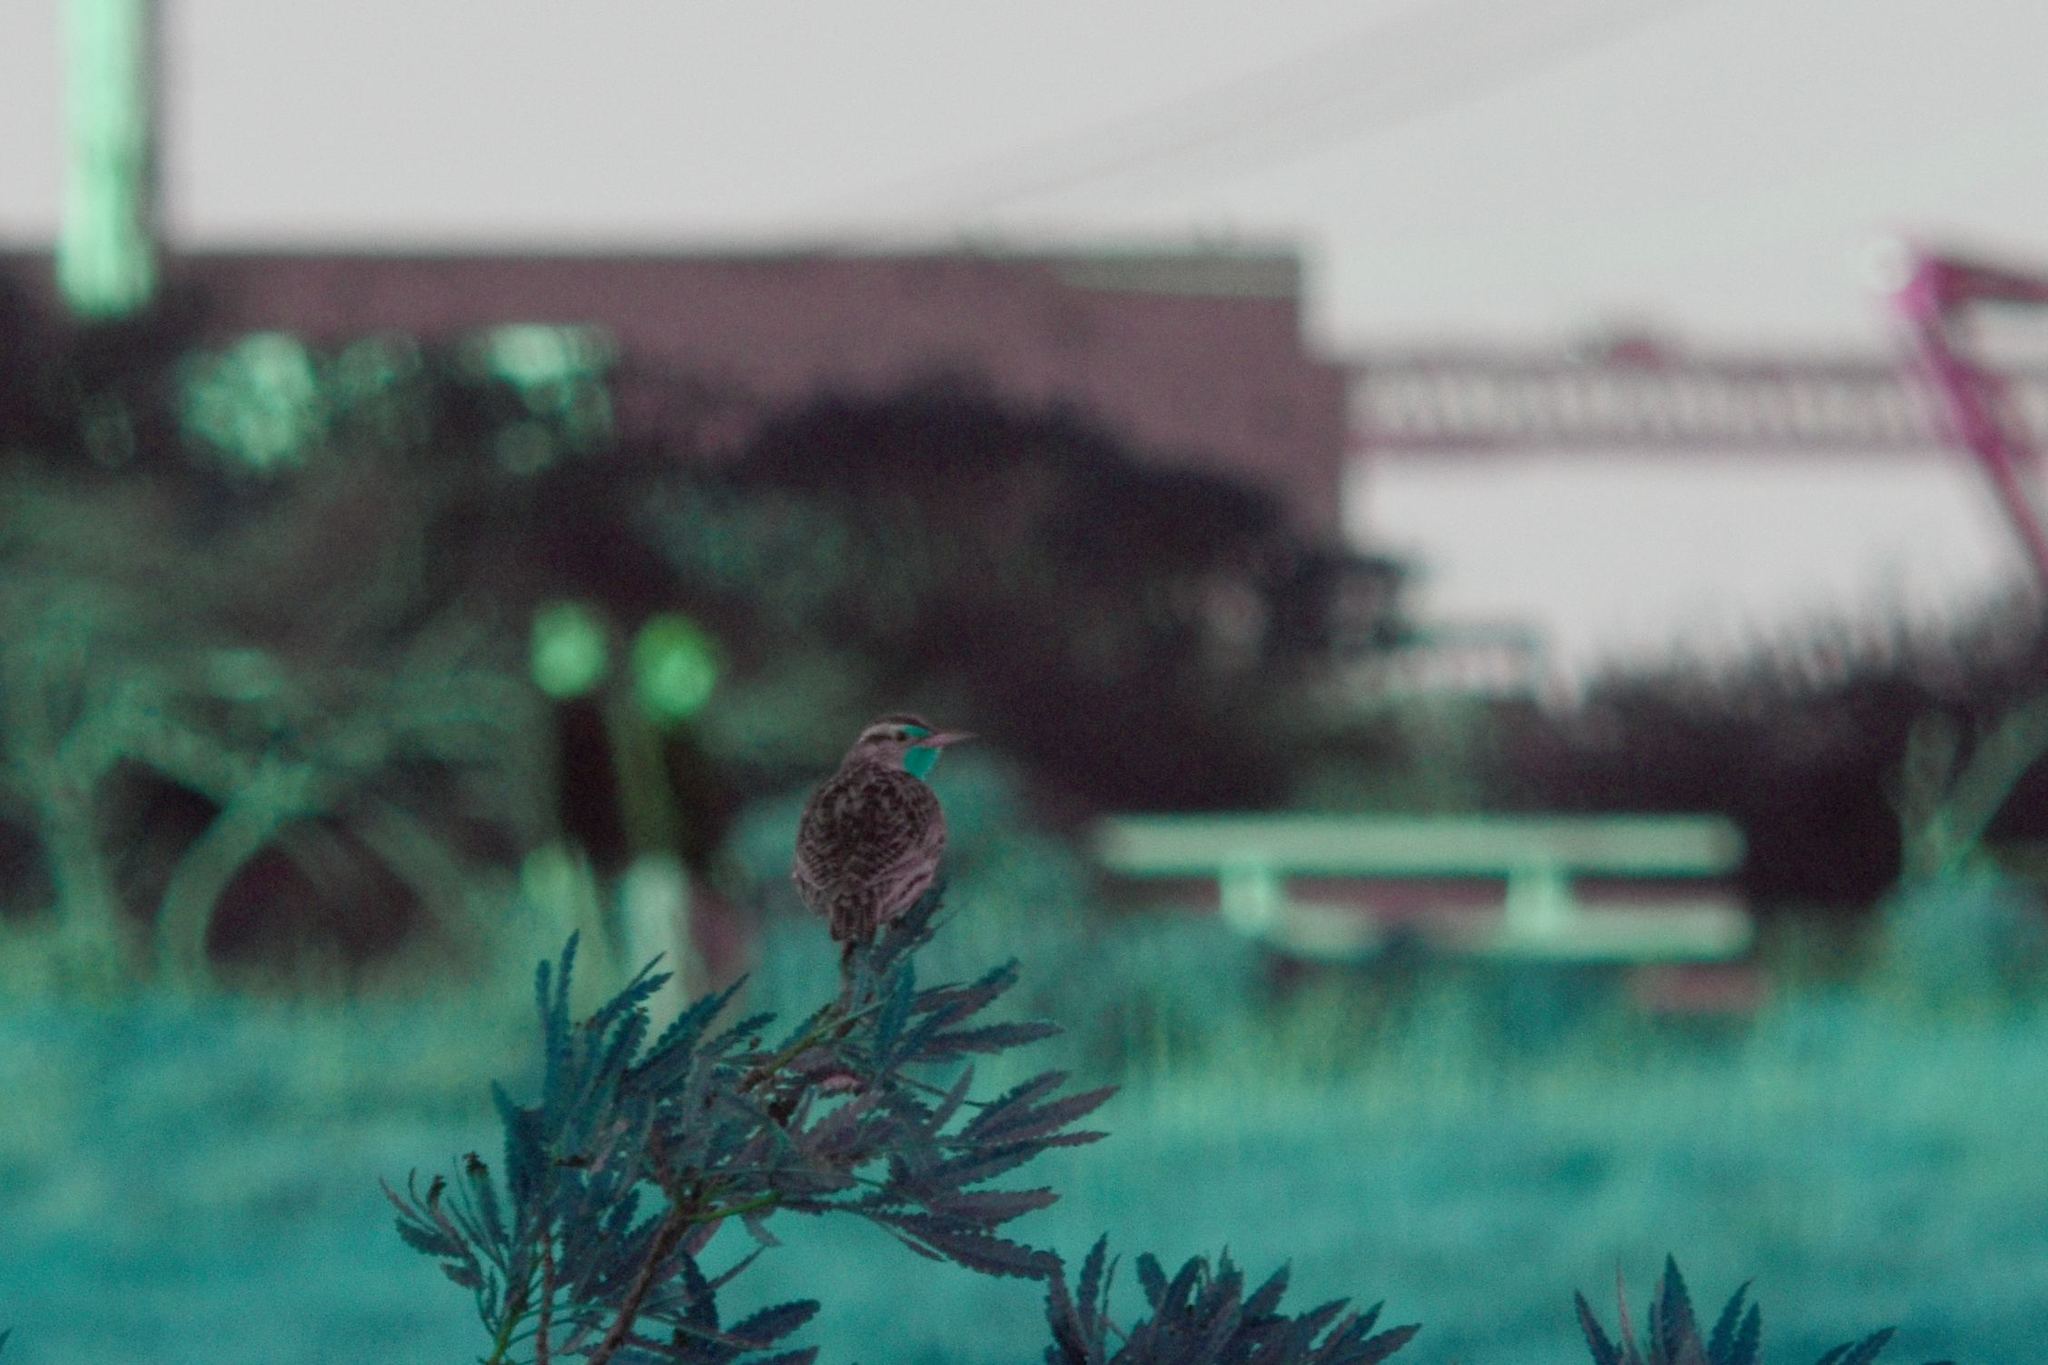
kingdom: Animalia
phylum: Chordata
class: Aves
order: Passeriformes
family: Icteridae
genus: Sturnella
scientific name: Sturnella neglecta
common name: Western meadowlark
